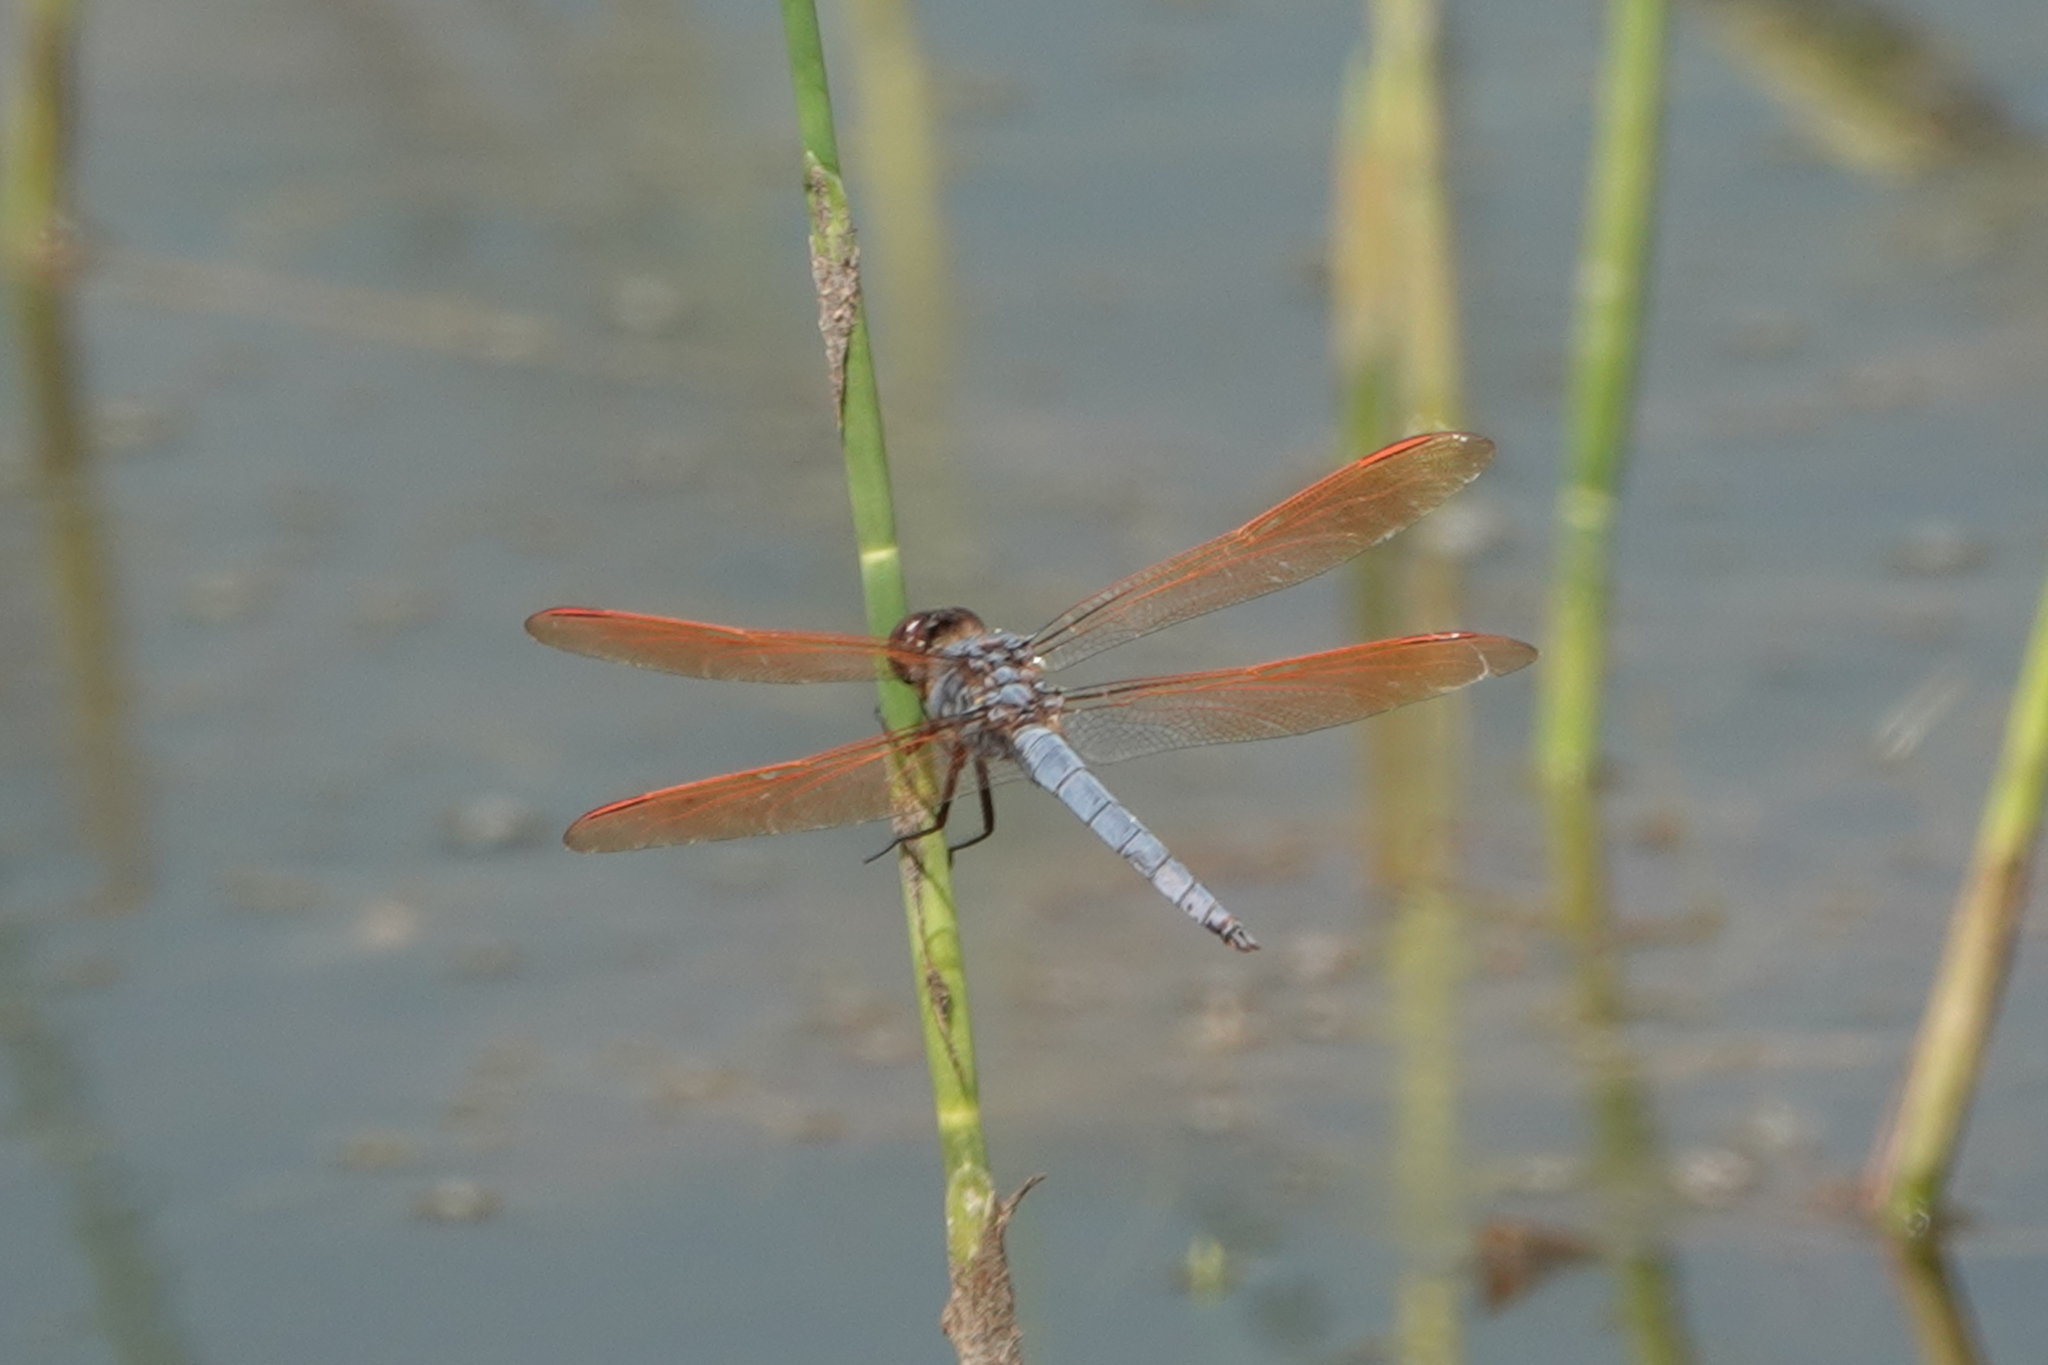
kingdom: Animalia
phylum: Arthropoda
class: Insecta
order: Odonata
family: Libellulidae
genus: Libellula
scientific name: Libellula jesseana
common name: Purple skimmer
